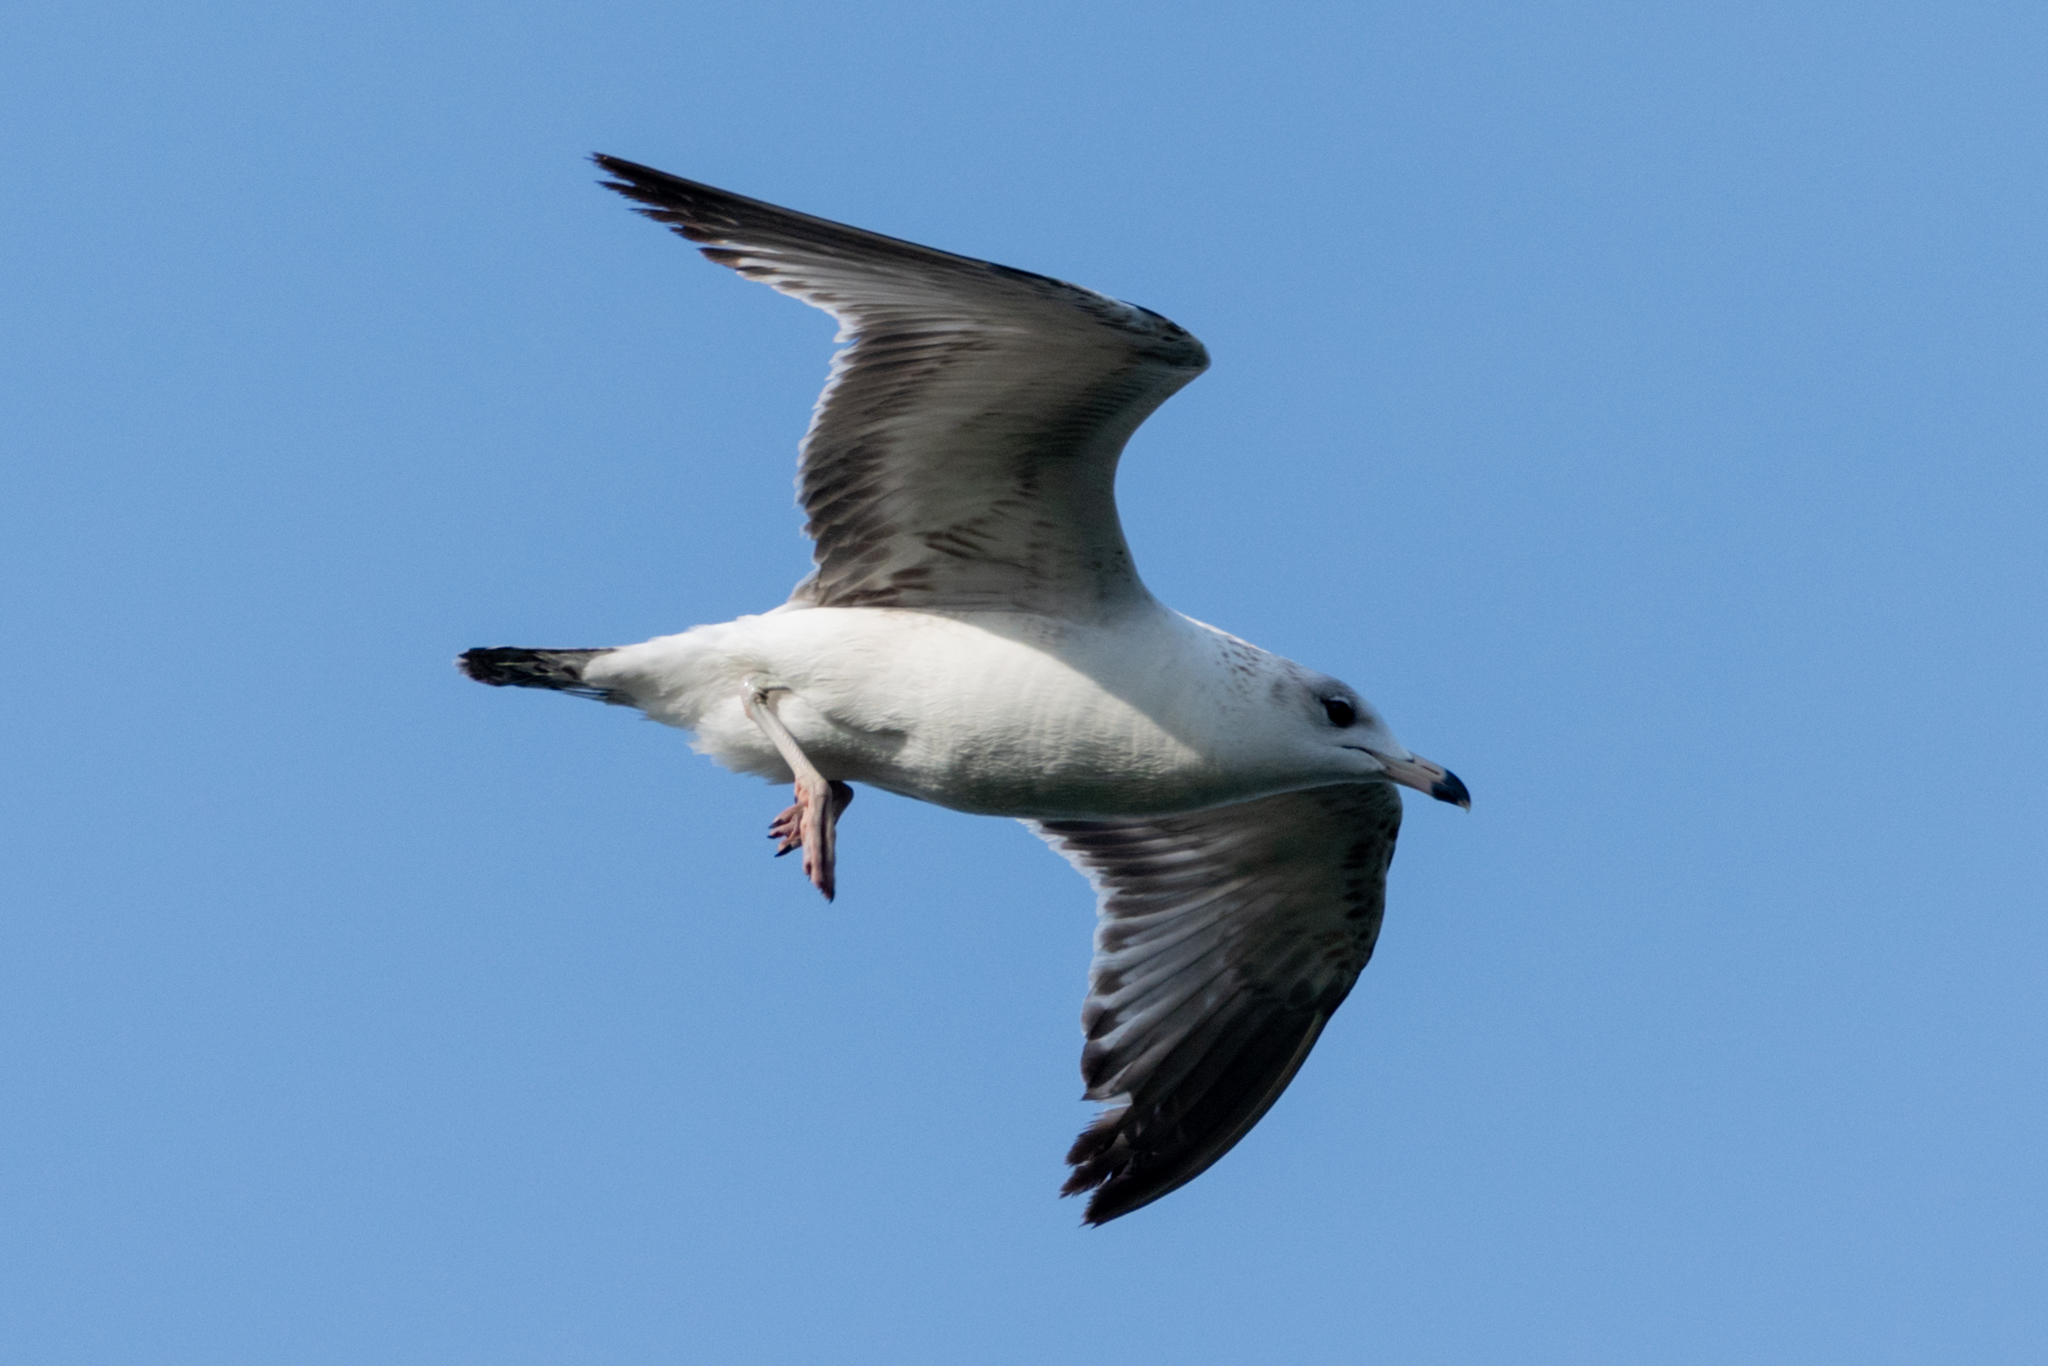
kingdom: Animalia
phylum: Chordata
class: Aves
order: Charadriiformes
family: Laridae
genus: Larus
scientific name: Larus delawarensis
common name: Ring-billed gull
